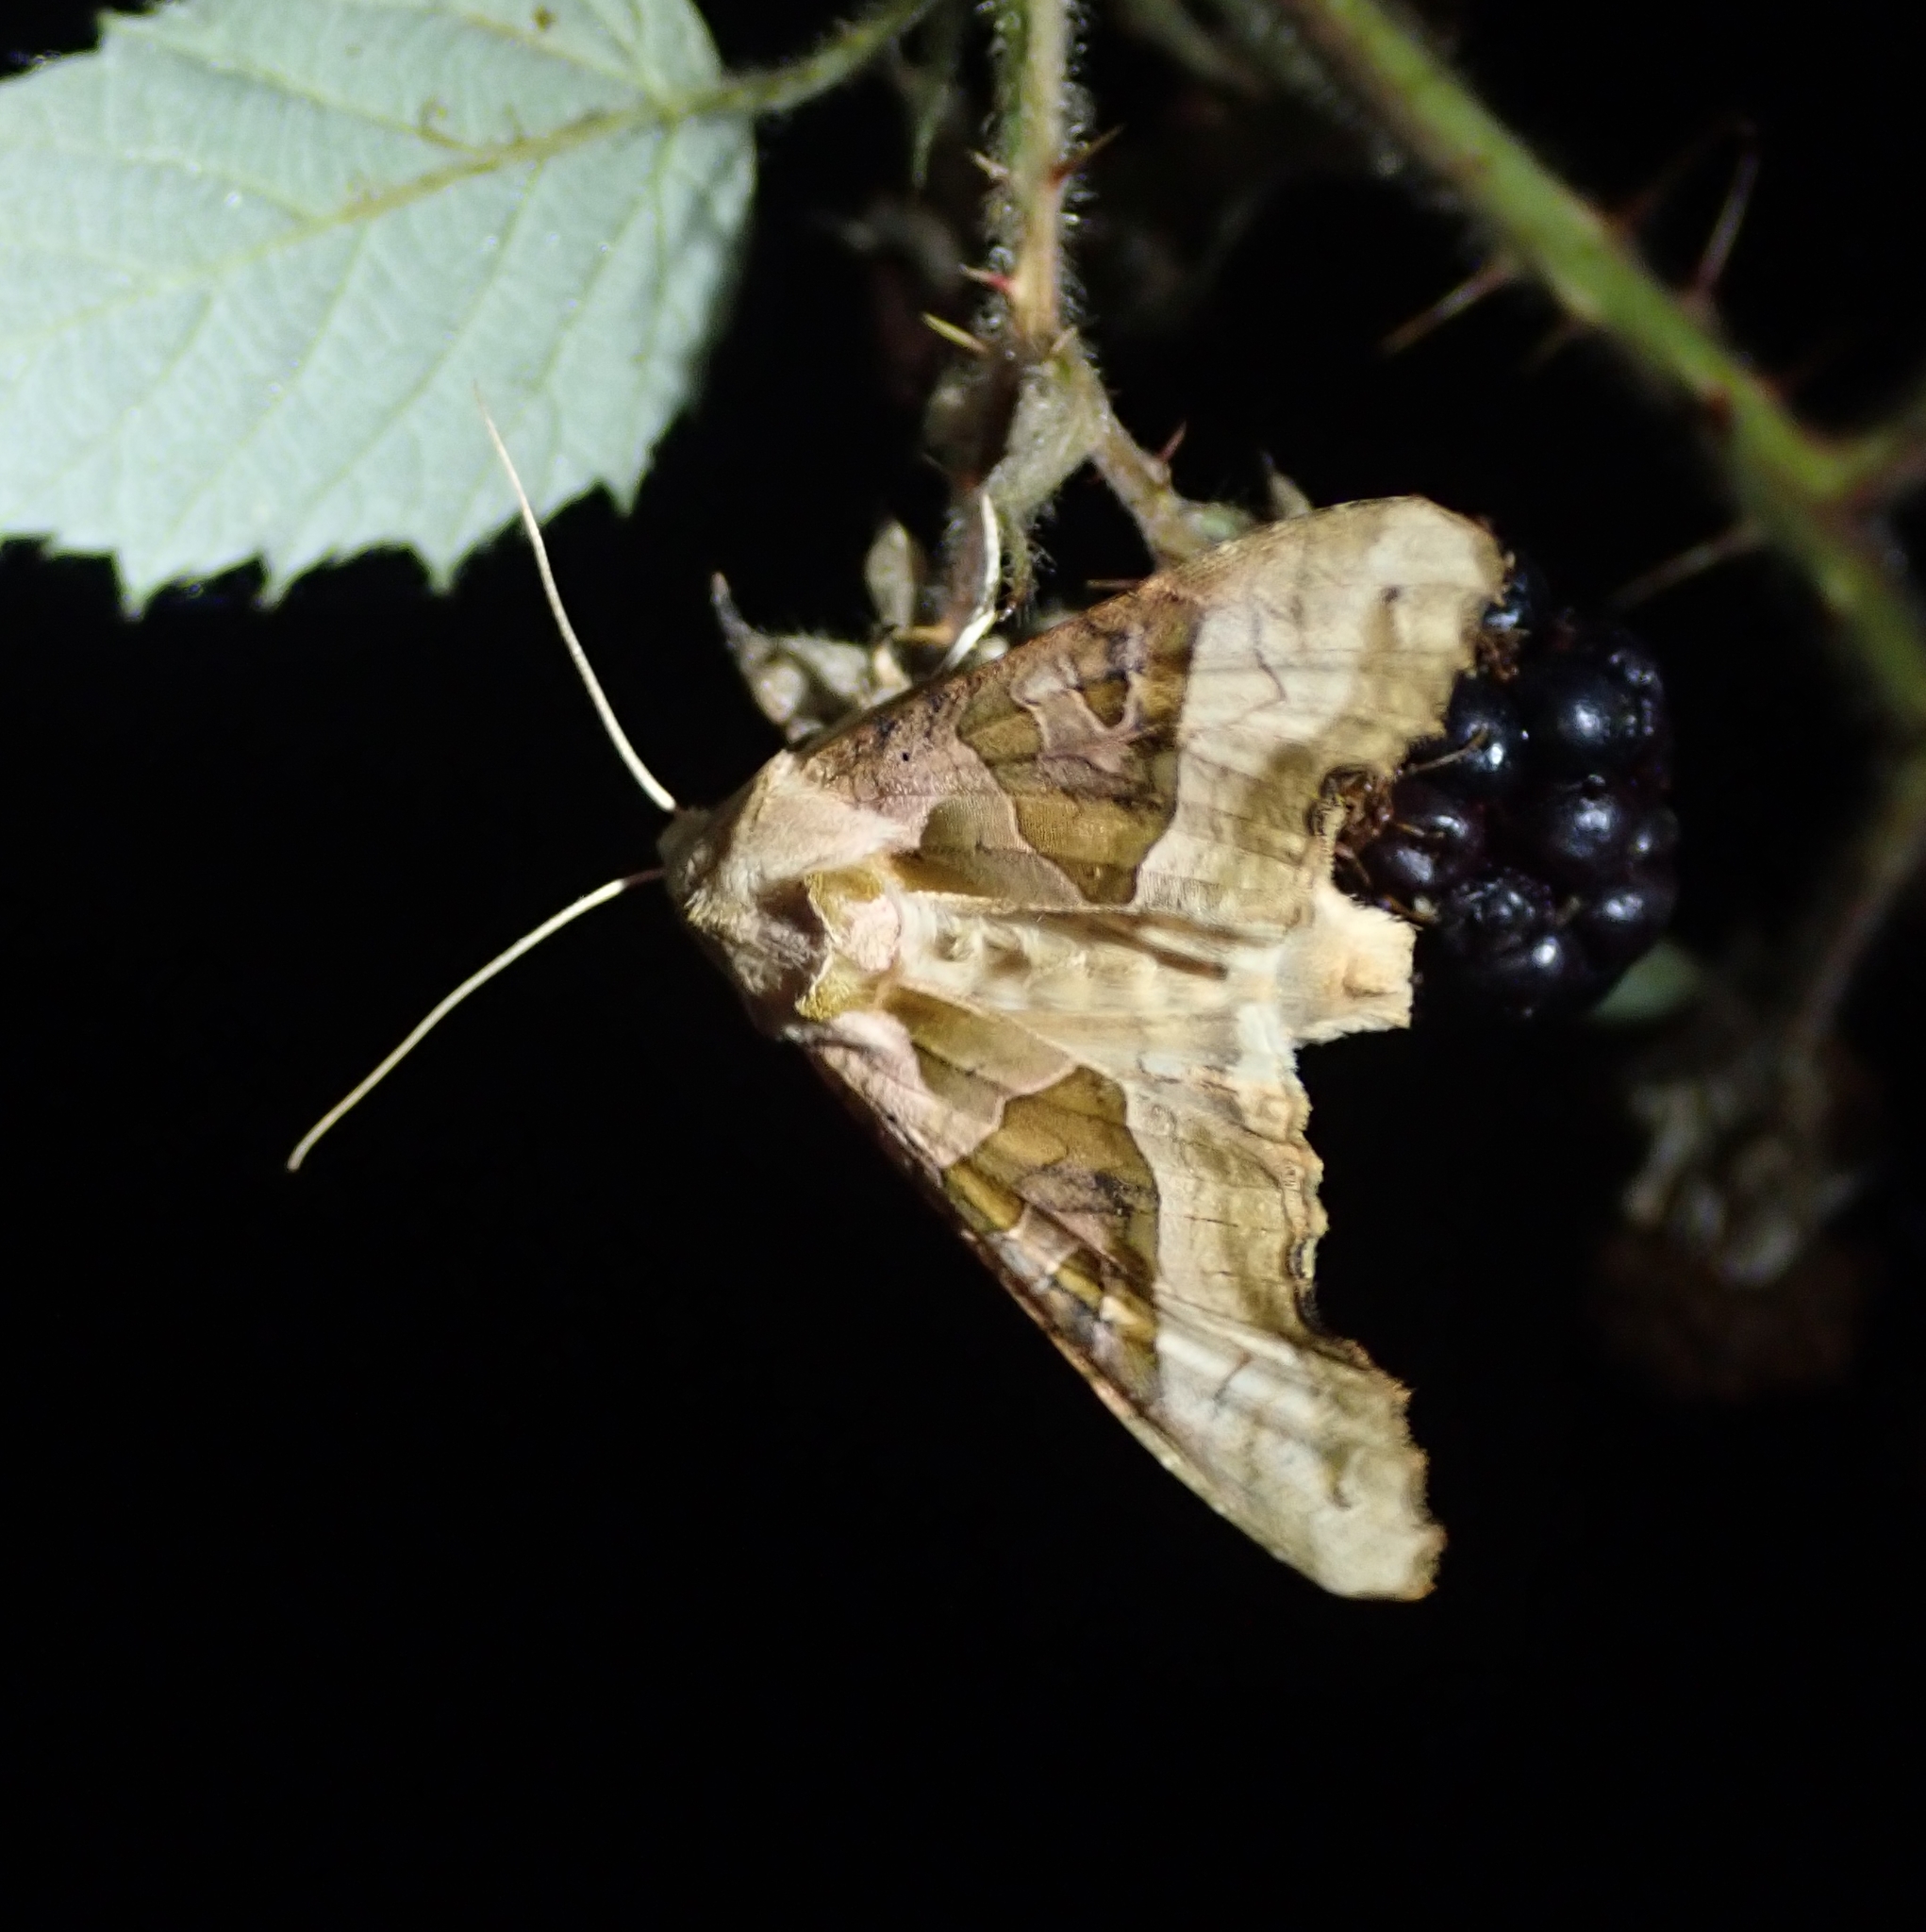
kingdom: Animalia
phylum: Arthropoda
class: Insecta
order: Lepidoptera
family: Noctuidae
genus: Phlogophora
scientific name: Phlogophora meticulosa
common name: Angle shades
